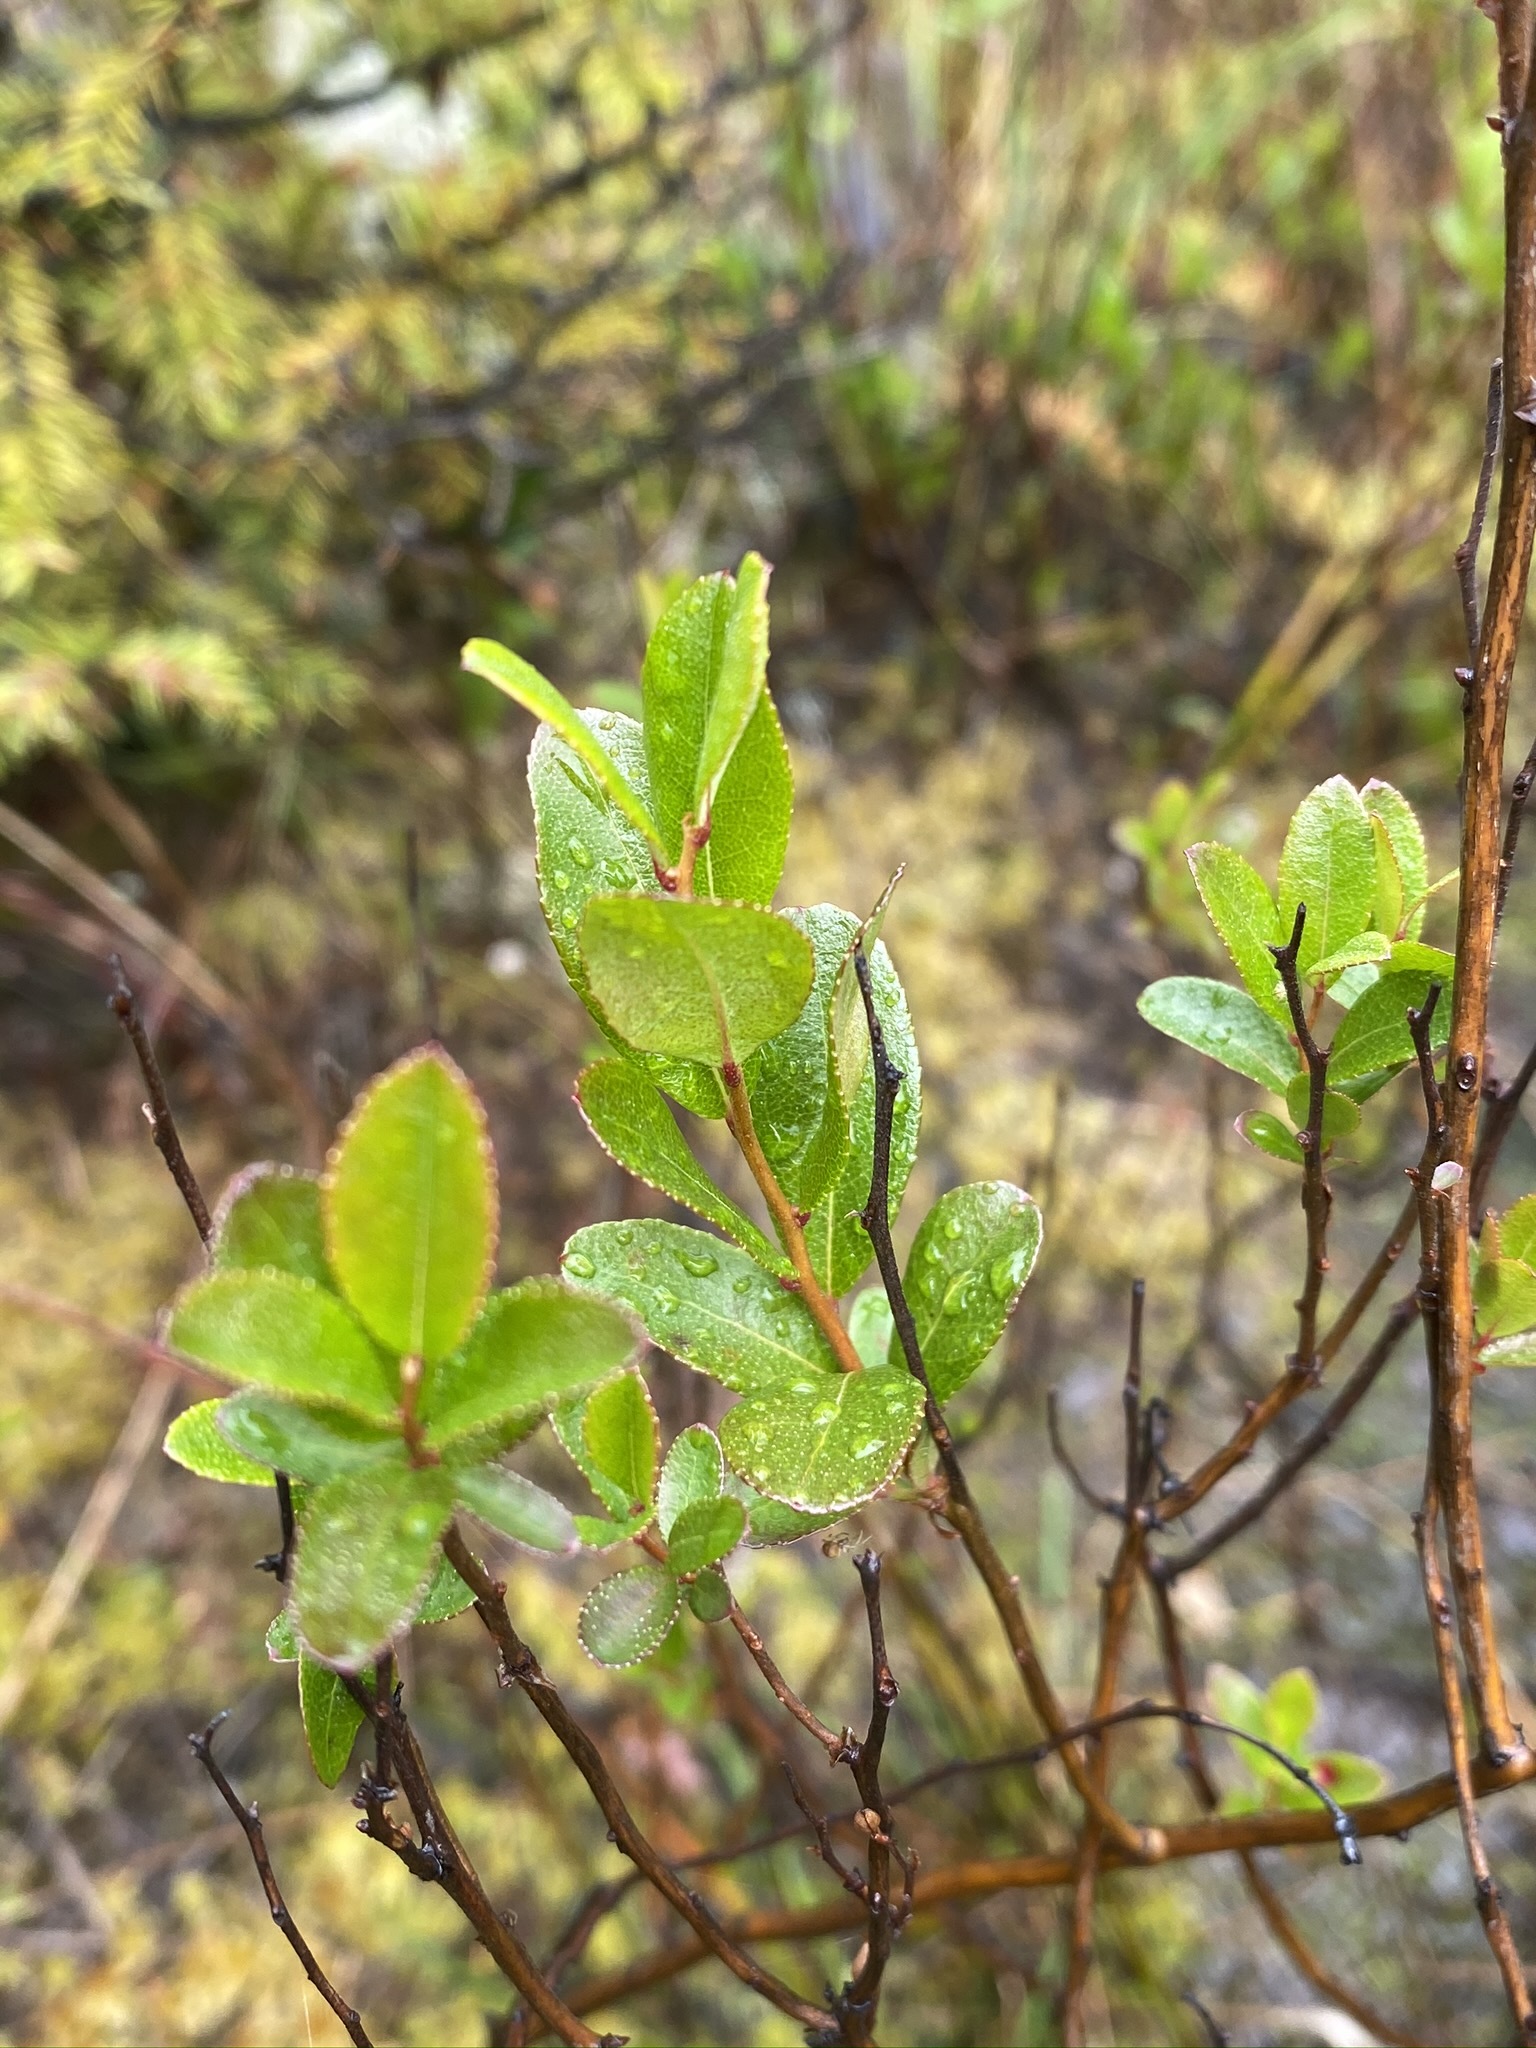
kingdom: Plantae
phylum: Tracheophyta
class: Magnoliopsida
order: Ericales
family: Ericaceae
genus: Chamaedaphne
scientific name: Chamaedaphne calyculata
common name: Leatherleaf
